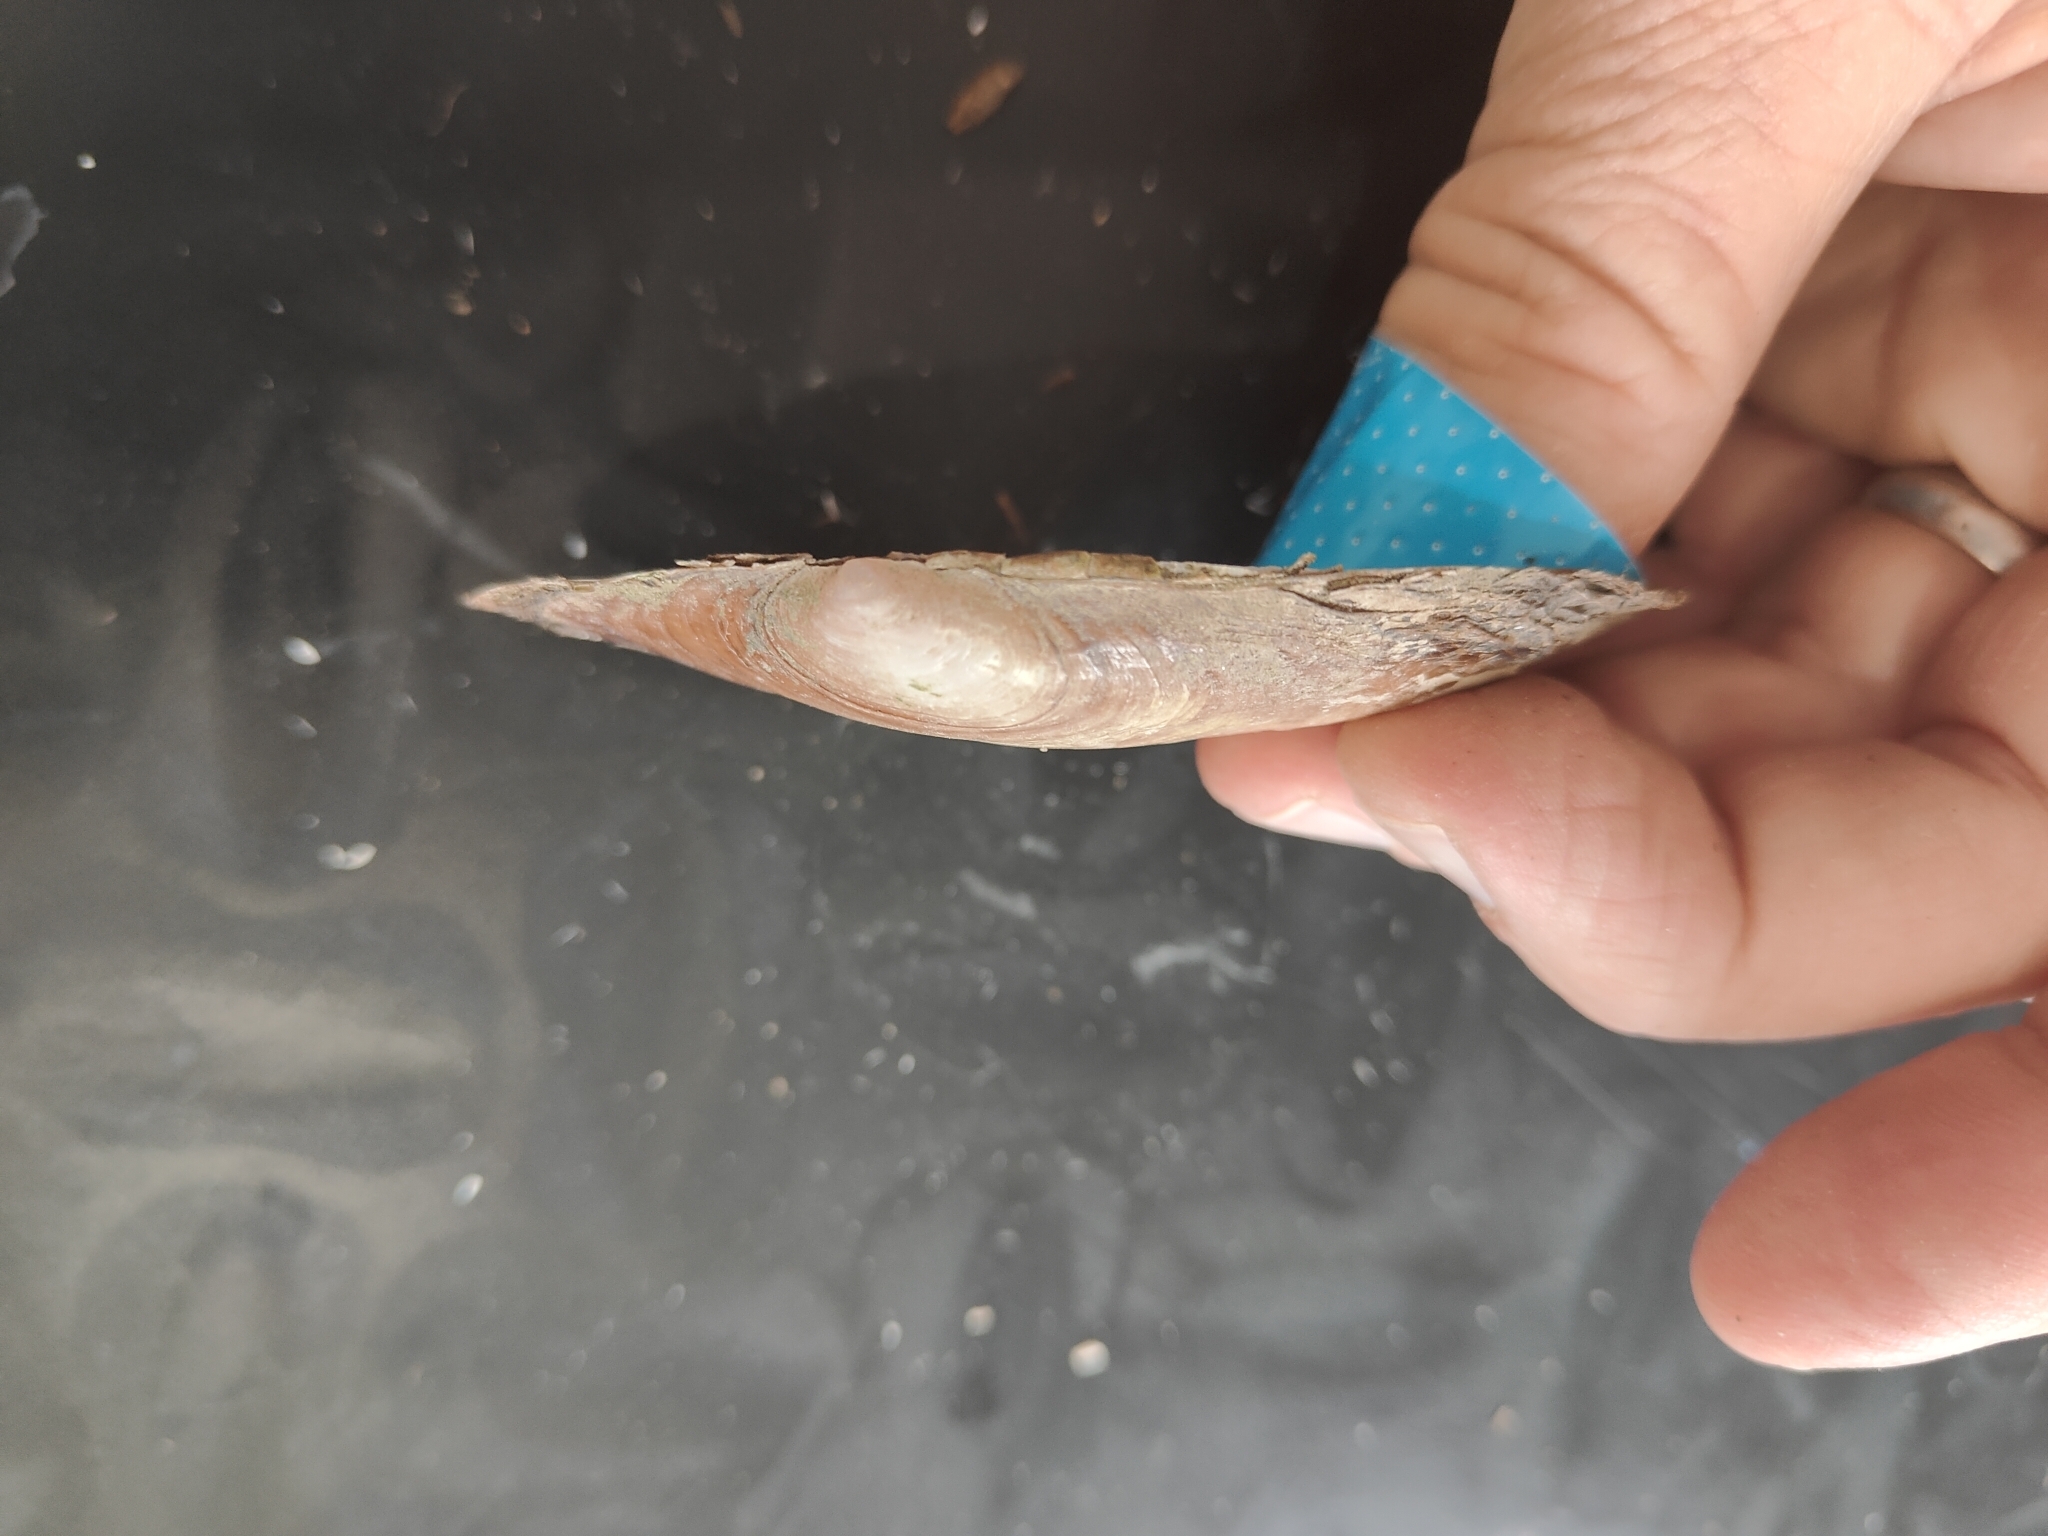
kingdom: Animalia
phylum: Mollusca
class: Bivalvia
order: Unionida
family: Unionidae
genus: Potamilus
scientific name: Potamilus ohiensis
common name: Pink papershell
